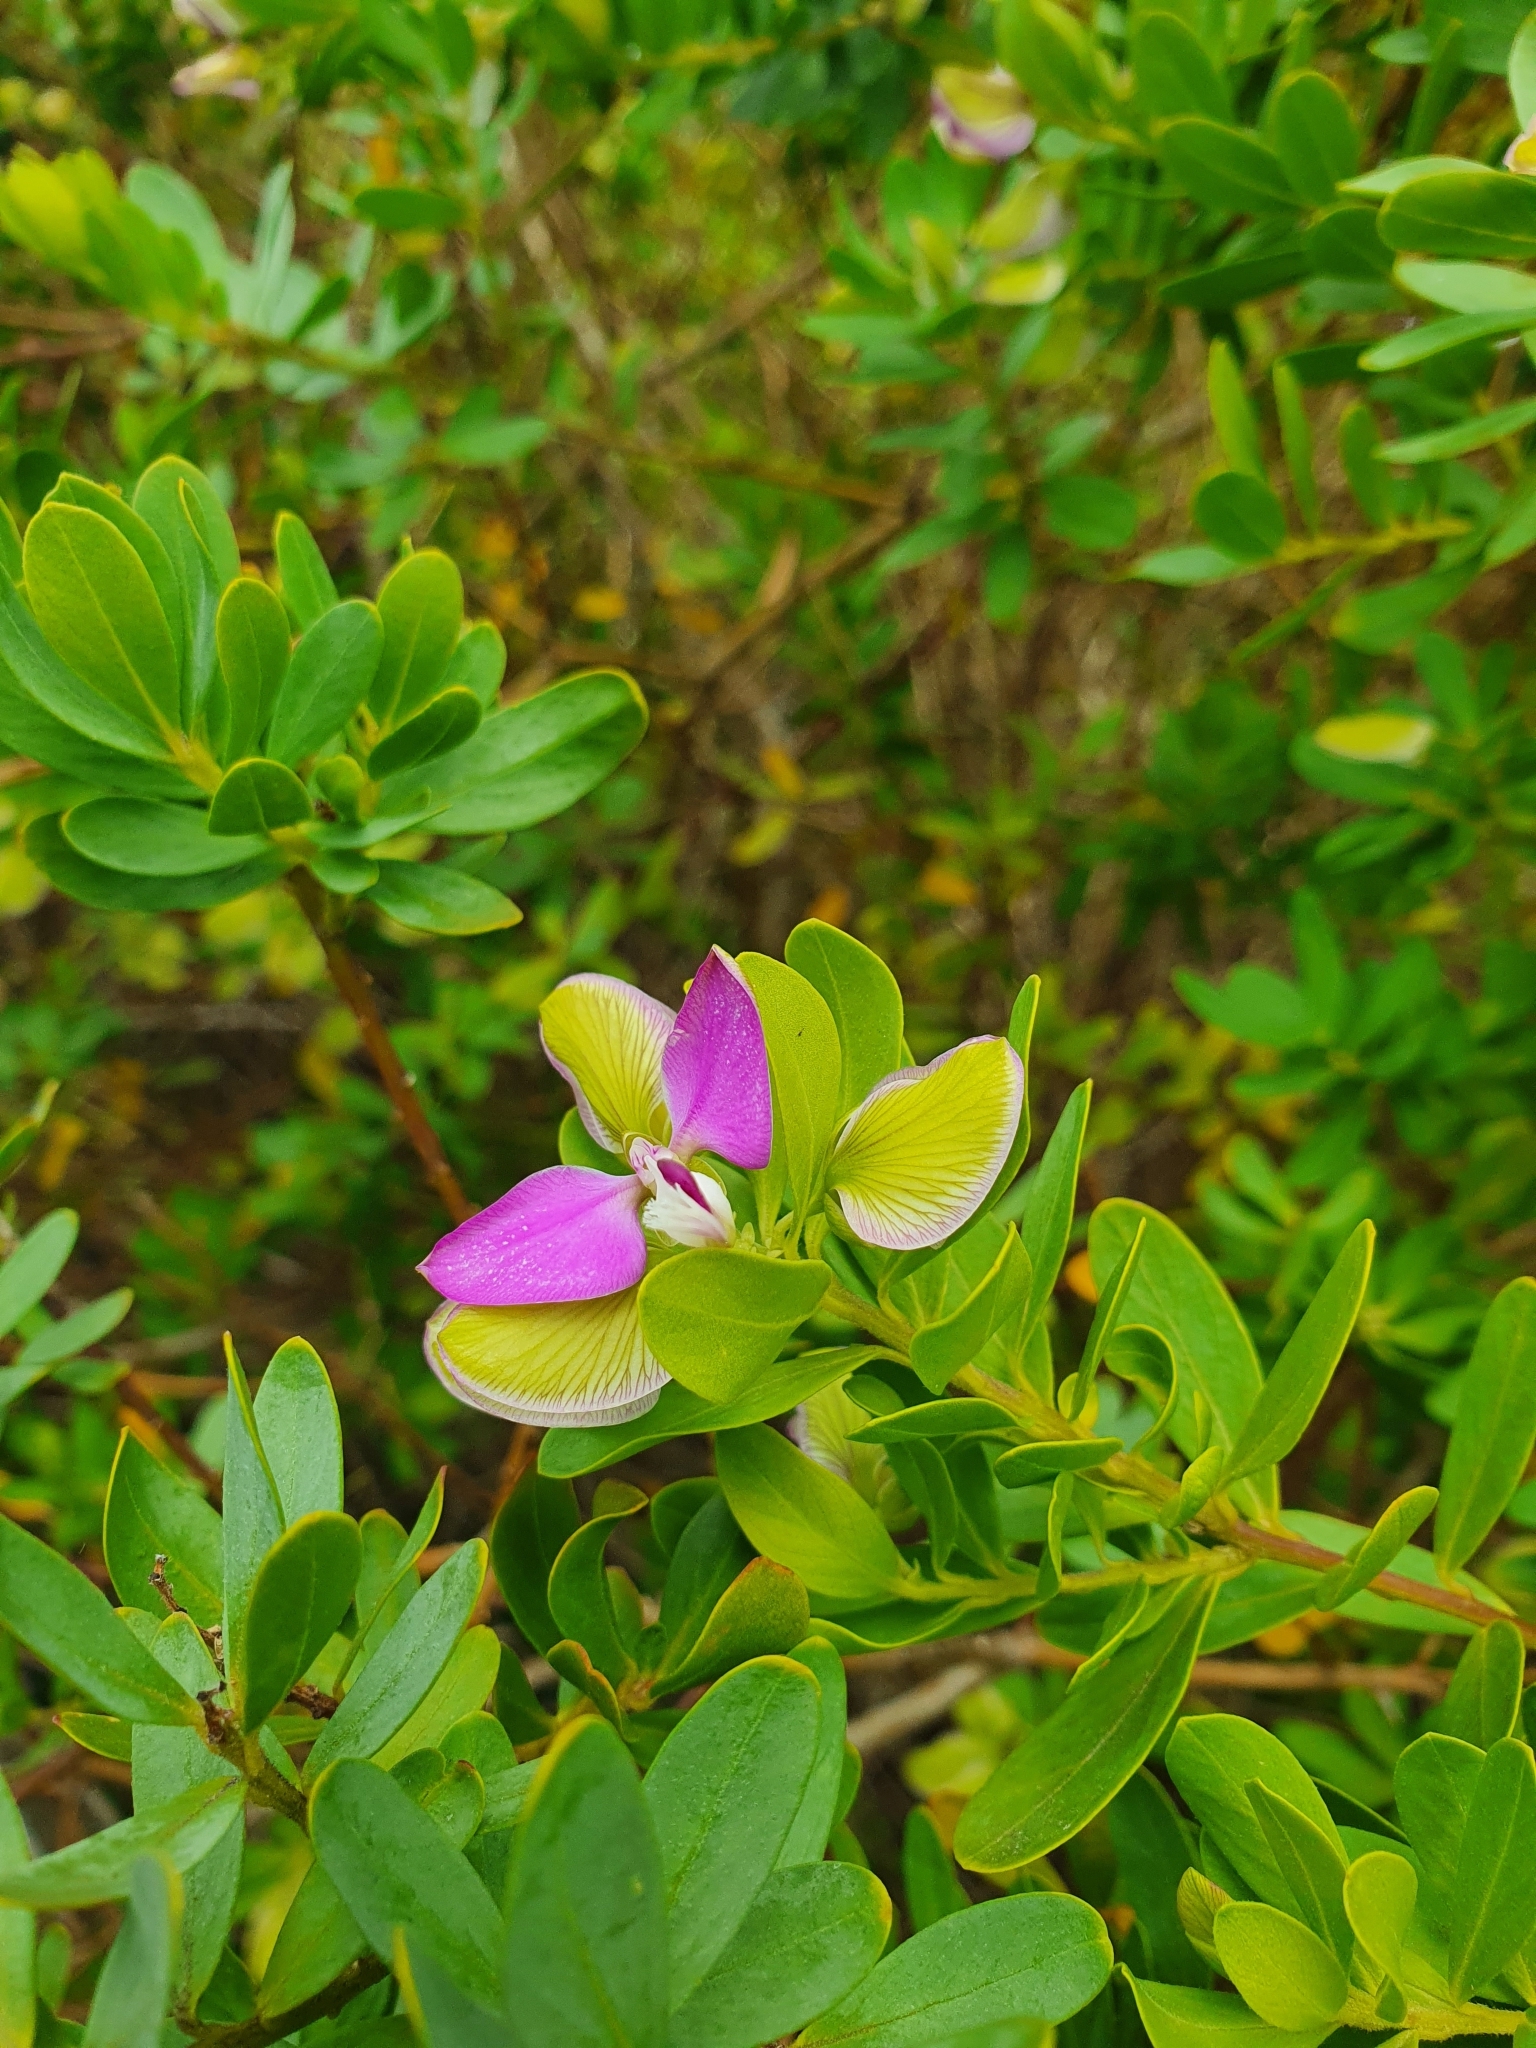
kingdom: Plantae
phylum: Tracheophyta
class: Magnoliopsida
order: Fabales
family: Polygalaceae
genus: Polygala
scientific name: Polygala myrtifolia
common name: Myrtle-leaf milkwort
